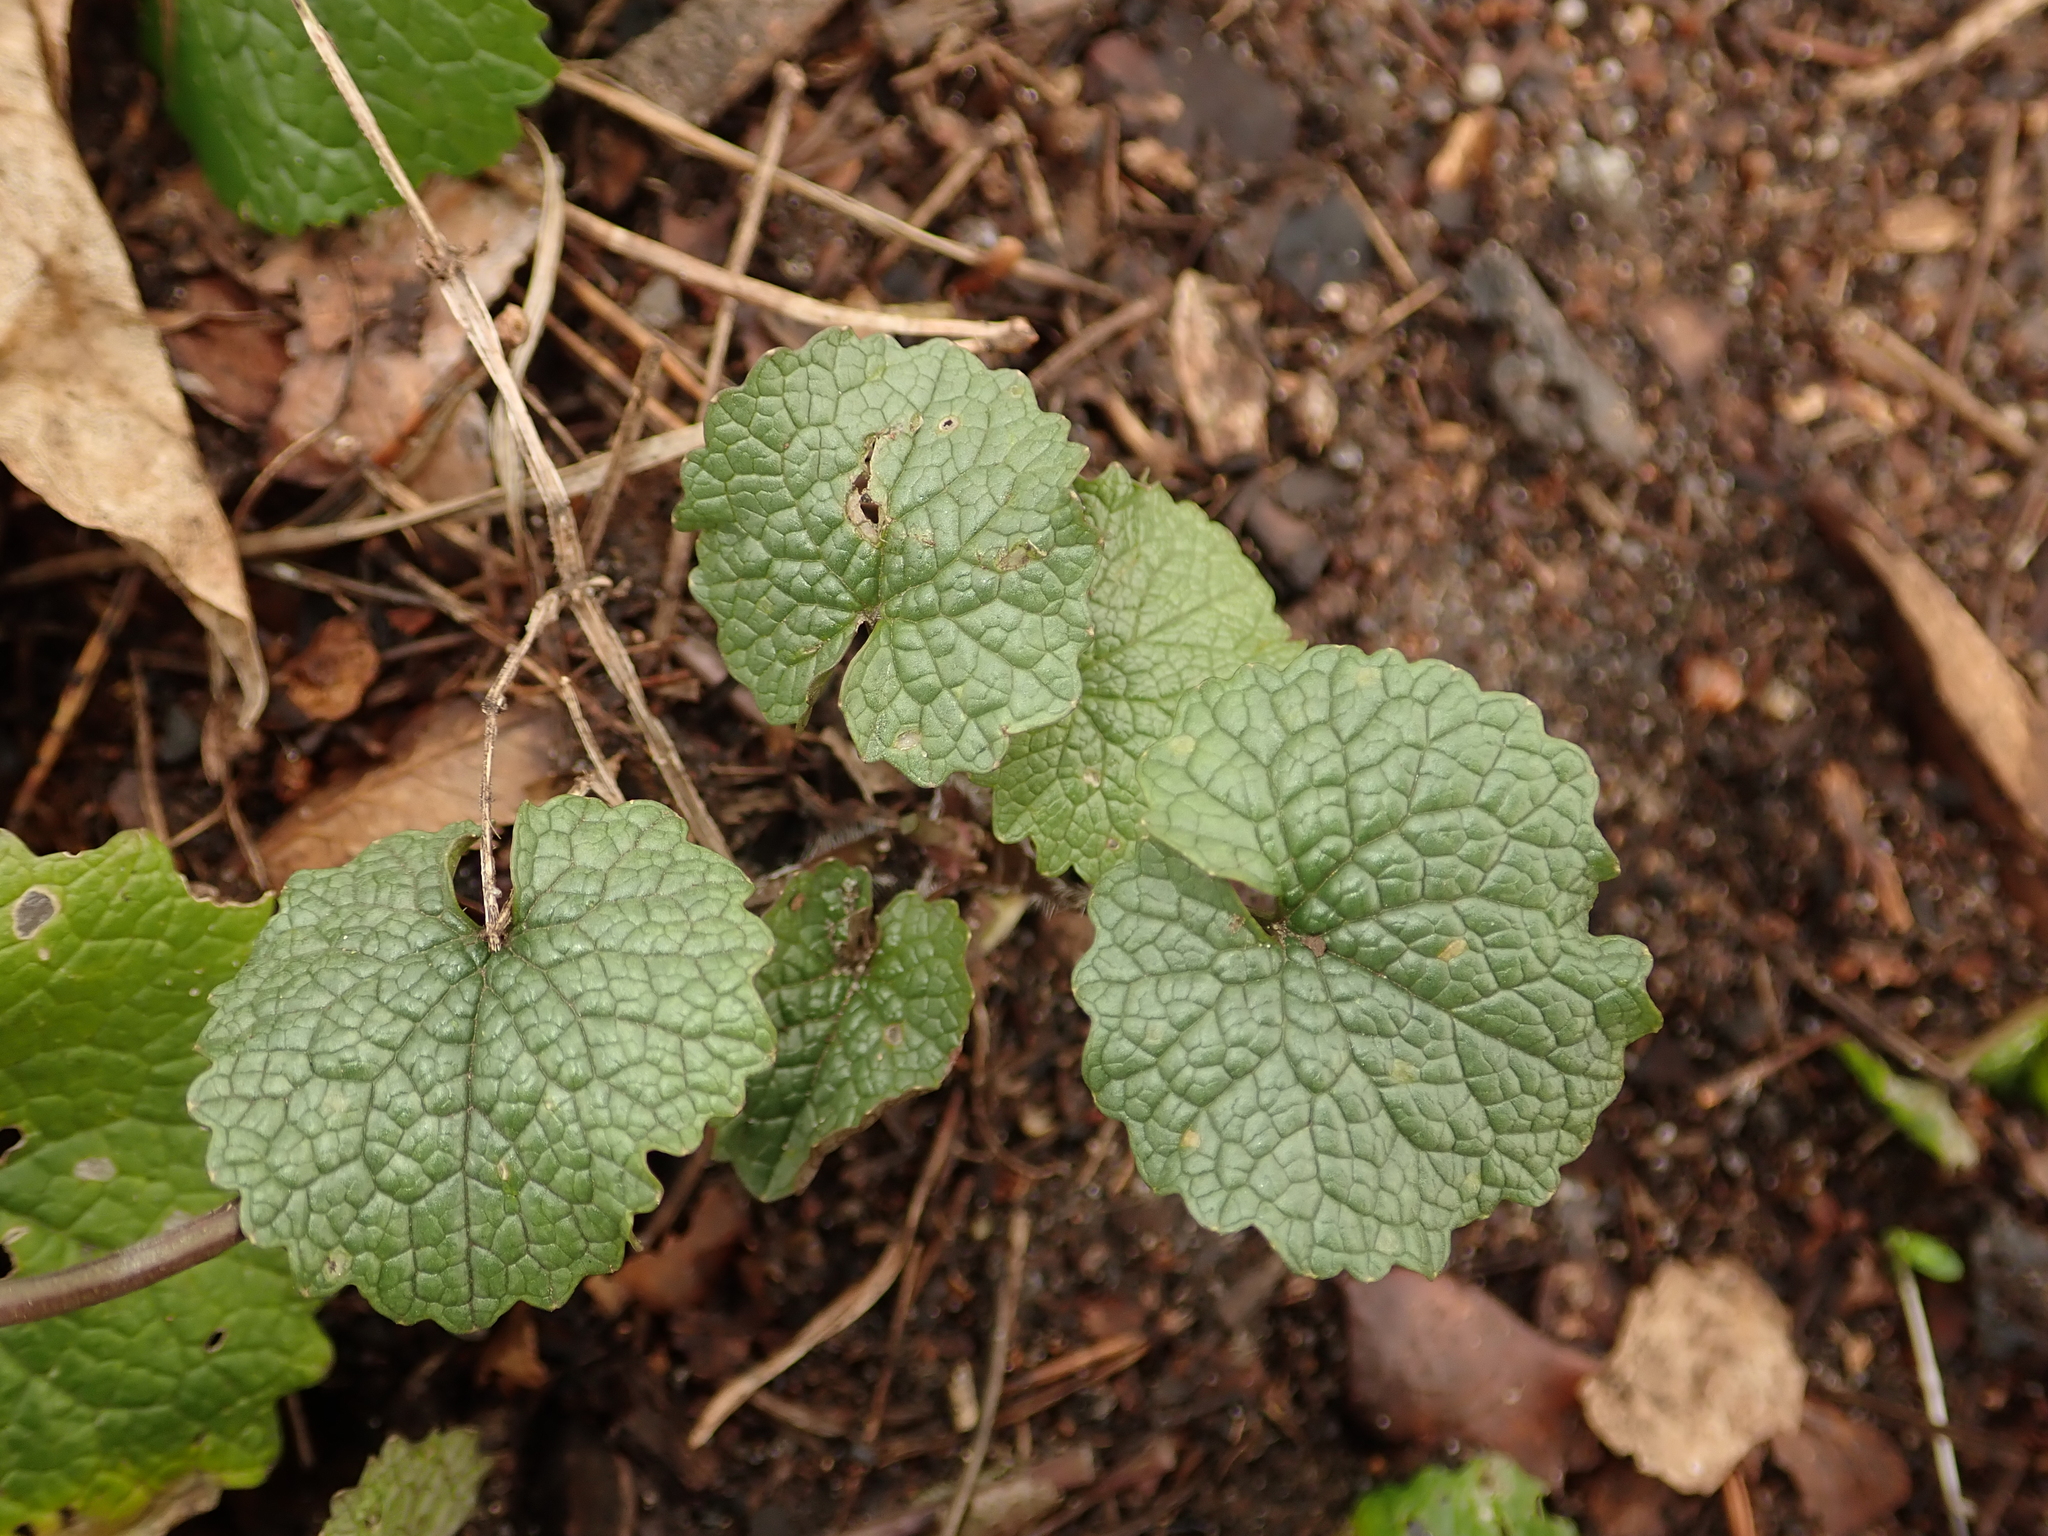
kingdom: Plantae
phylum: Tracheophyta
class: Magnoliopsida
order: Brassicales
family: Brassicaceae
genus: Alliaria
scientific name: Alliaria petiolata
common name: Garlic mustard
